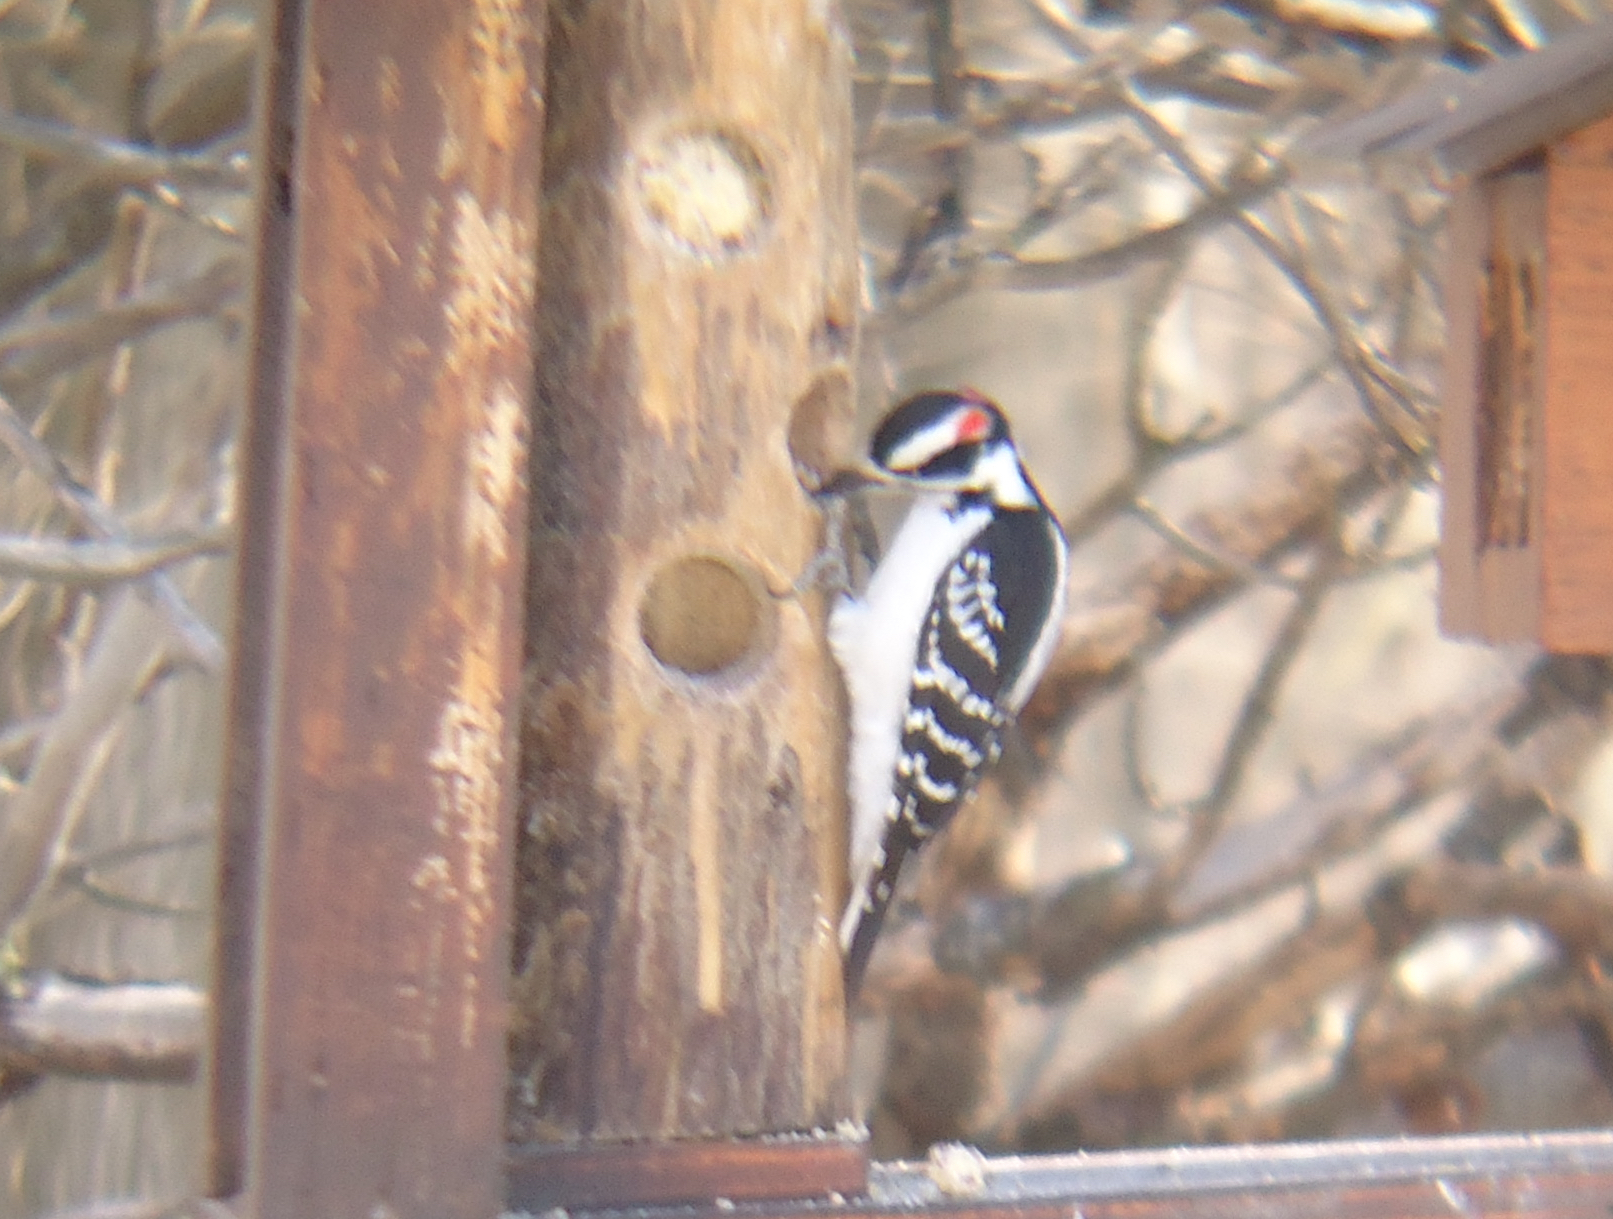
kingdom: Animalia
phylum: Chordata
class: Aves
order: Piciformes
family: Picidae
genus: Leuconotopicus
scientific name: Leuconotopicus villosus
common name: Hairy woodpecker
